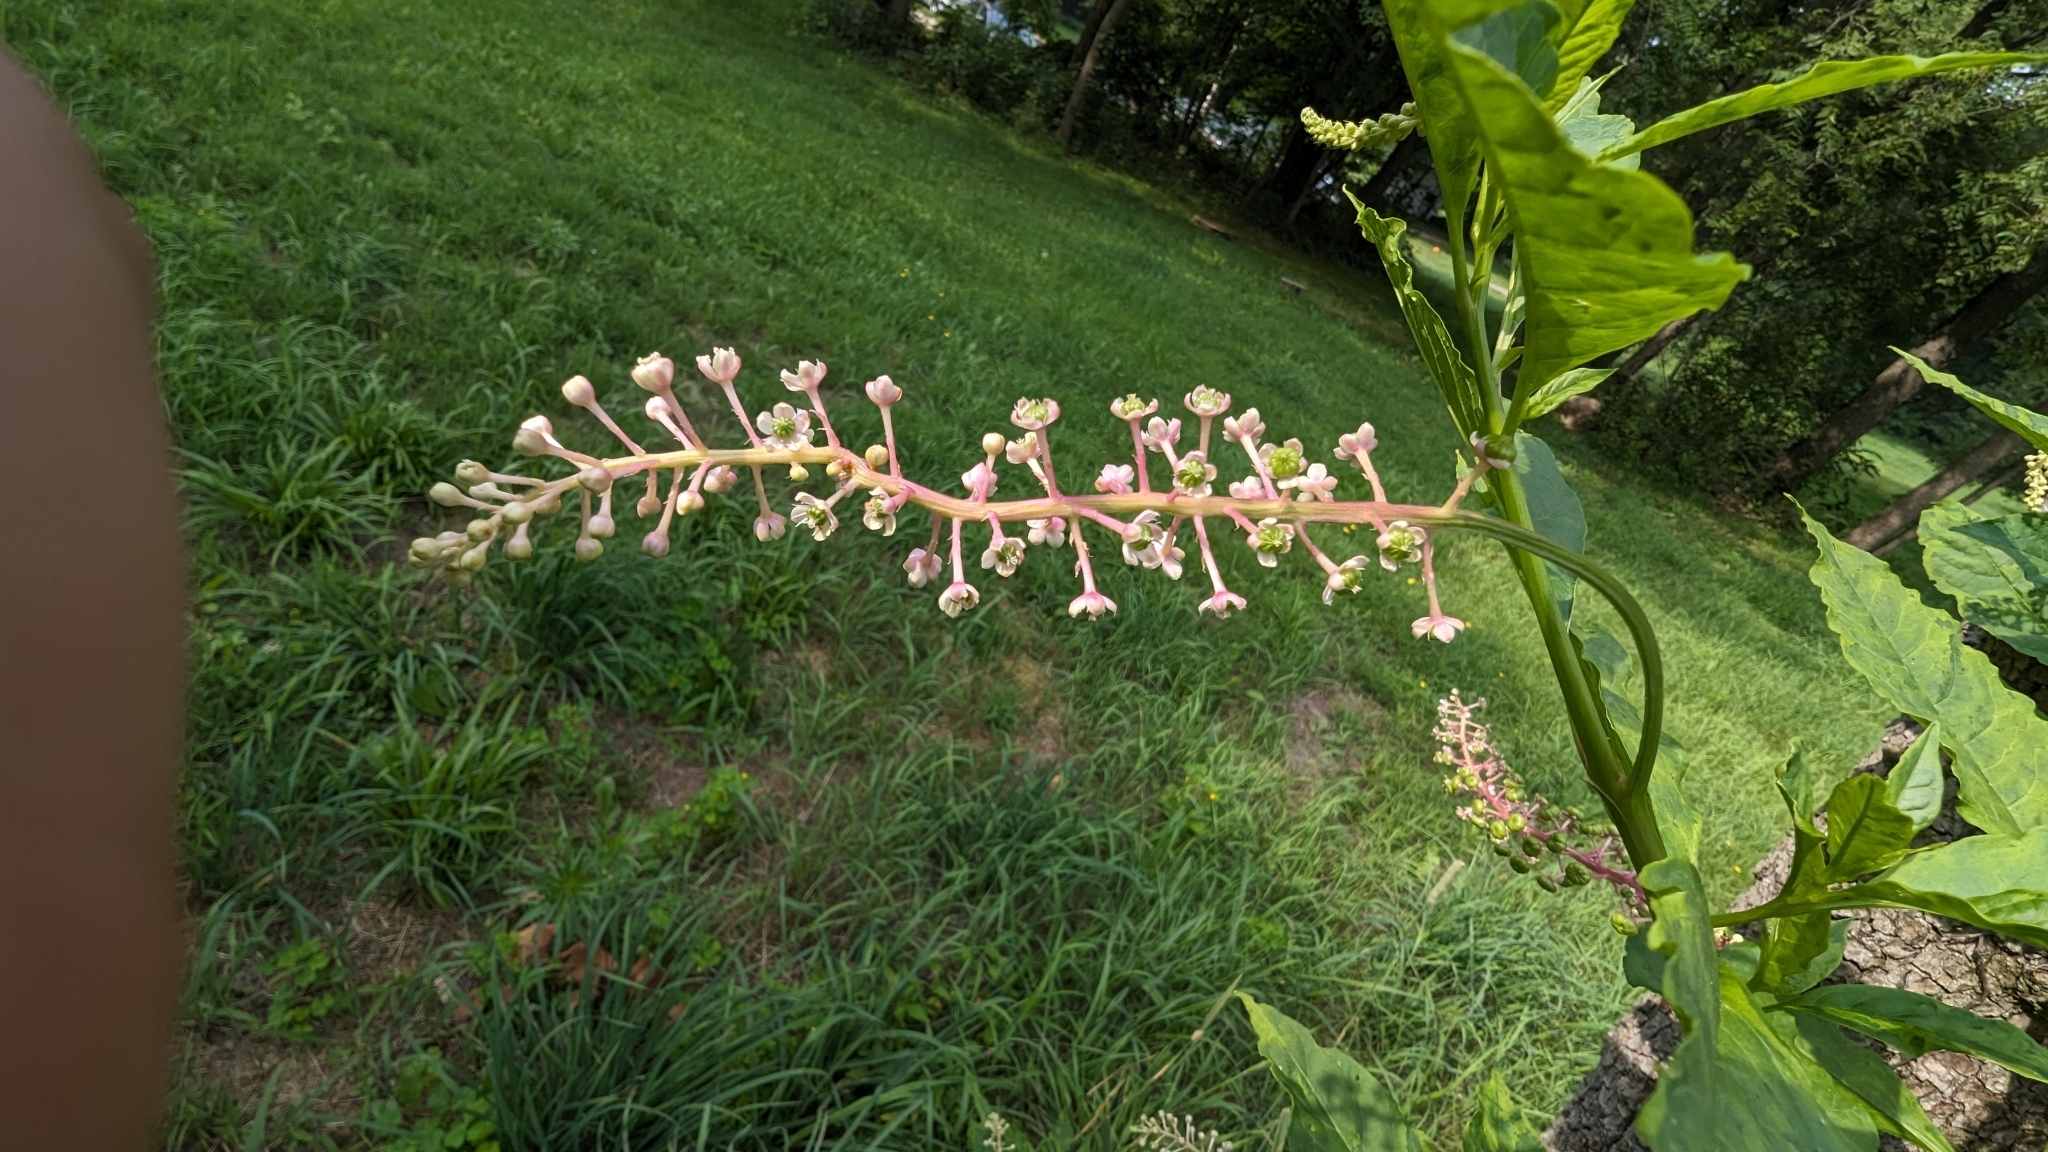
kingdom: Plantae
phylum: Tracheophyta
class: Magnoliopsida
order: Caryophyllales
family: Phytolaccaceae
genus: Phytolacca
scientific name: Phytolacca americana
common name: American pokeweed
